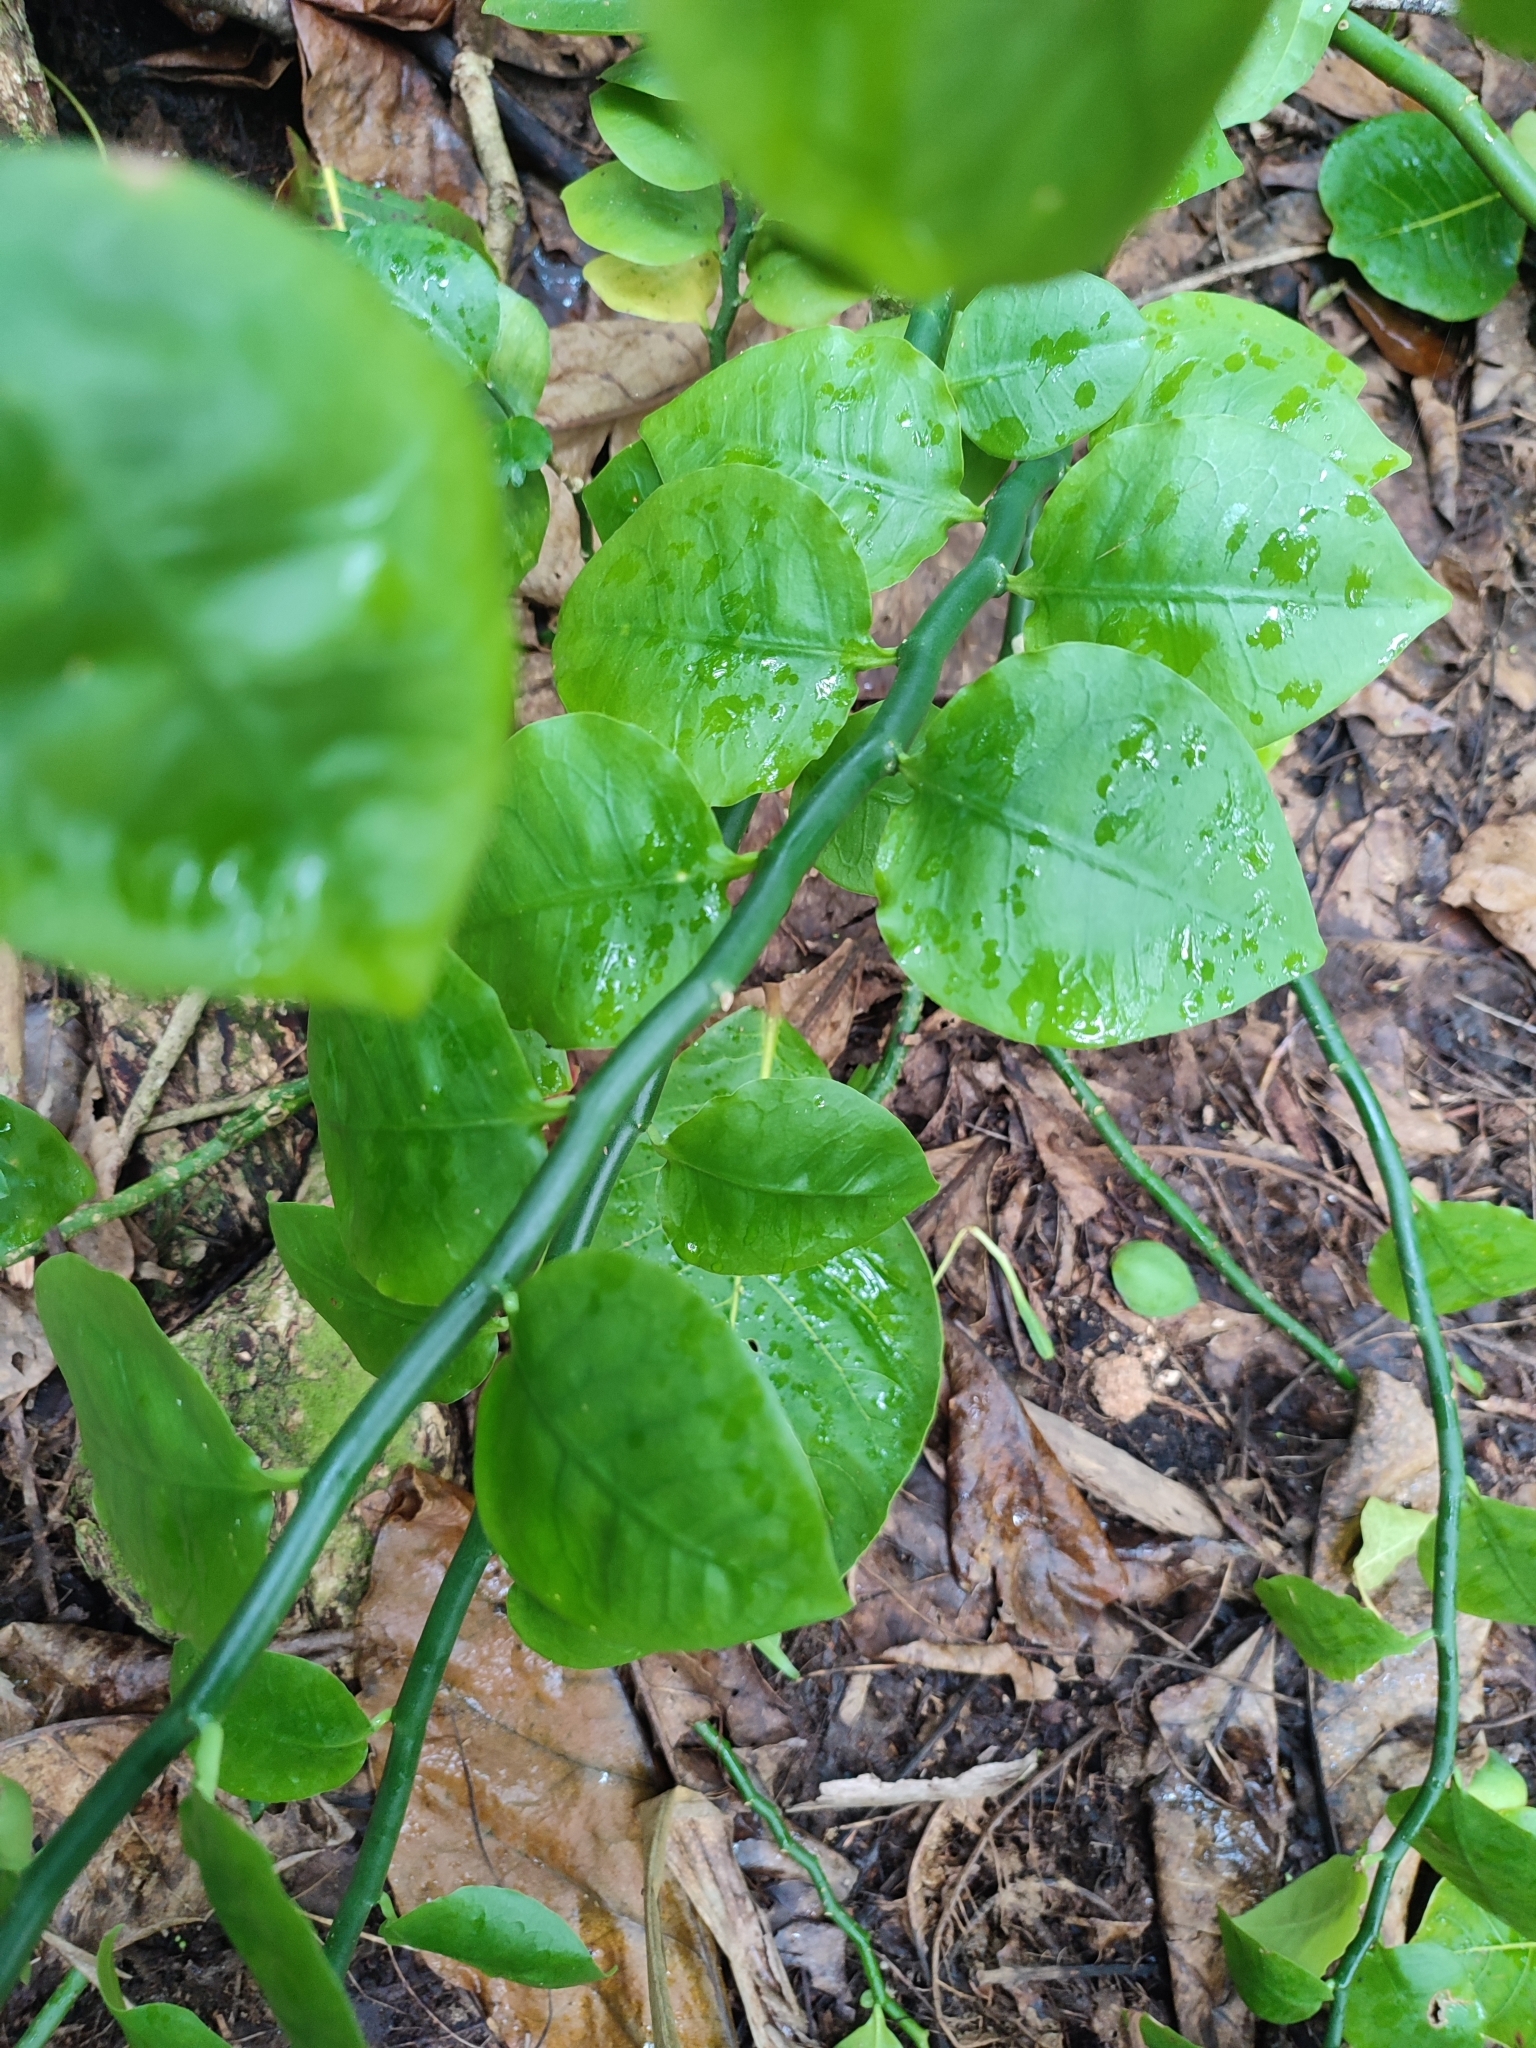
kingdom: Plantae
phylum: Tracheophyta
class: Magnoliopsida
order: Malpighiales
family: Euphorbiaceae
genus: Euphorbia
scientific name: Euphorbia tithymaloides
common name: Slipperplant
